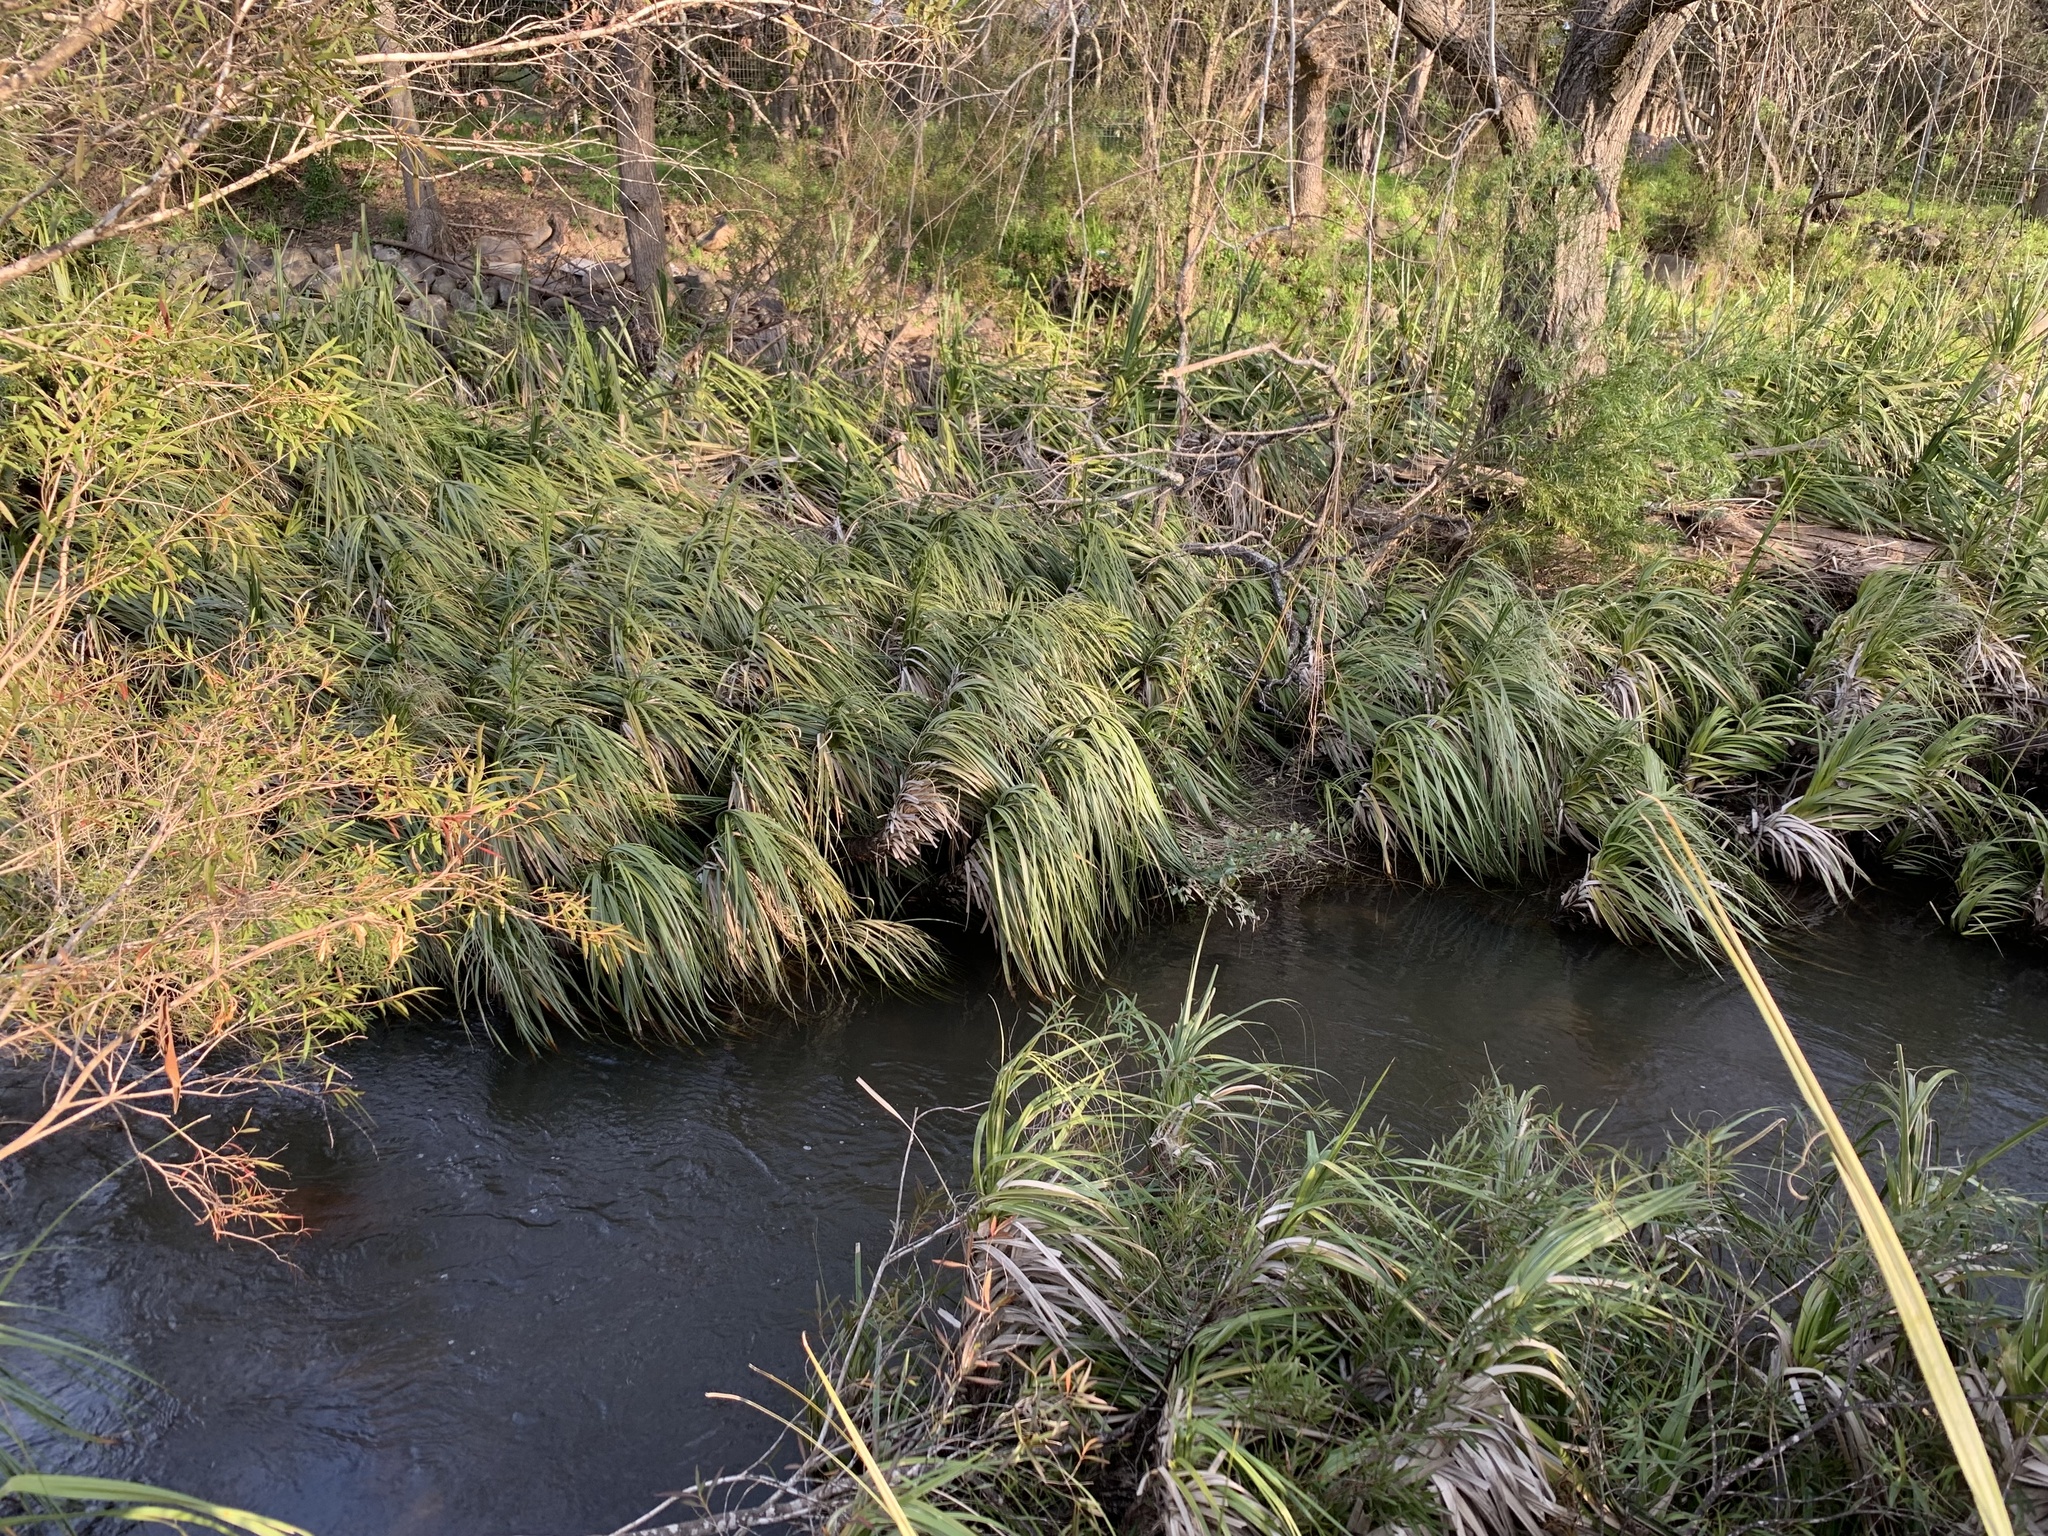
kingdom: Plantae
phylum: Tracheophyta
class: Liliopsida
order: Poales
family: Thurniaceae
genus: Prionium
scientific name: Prionium serratum
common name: Palmiet
